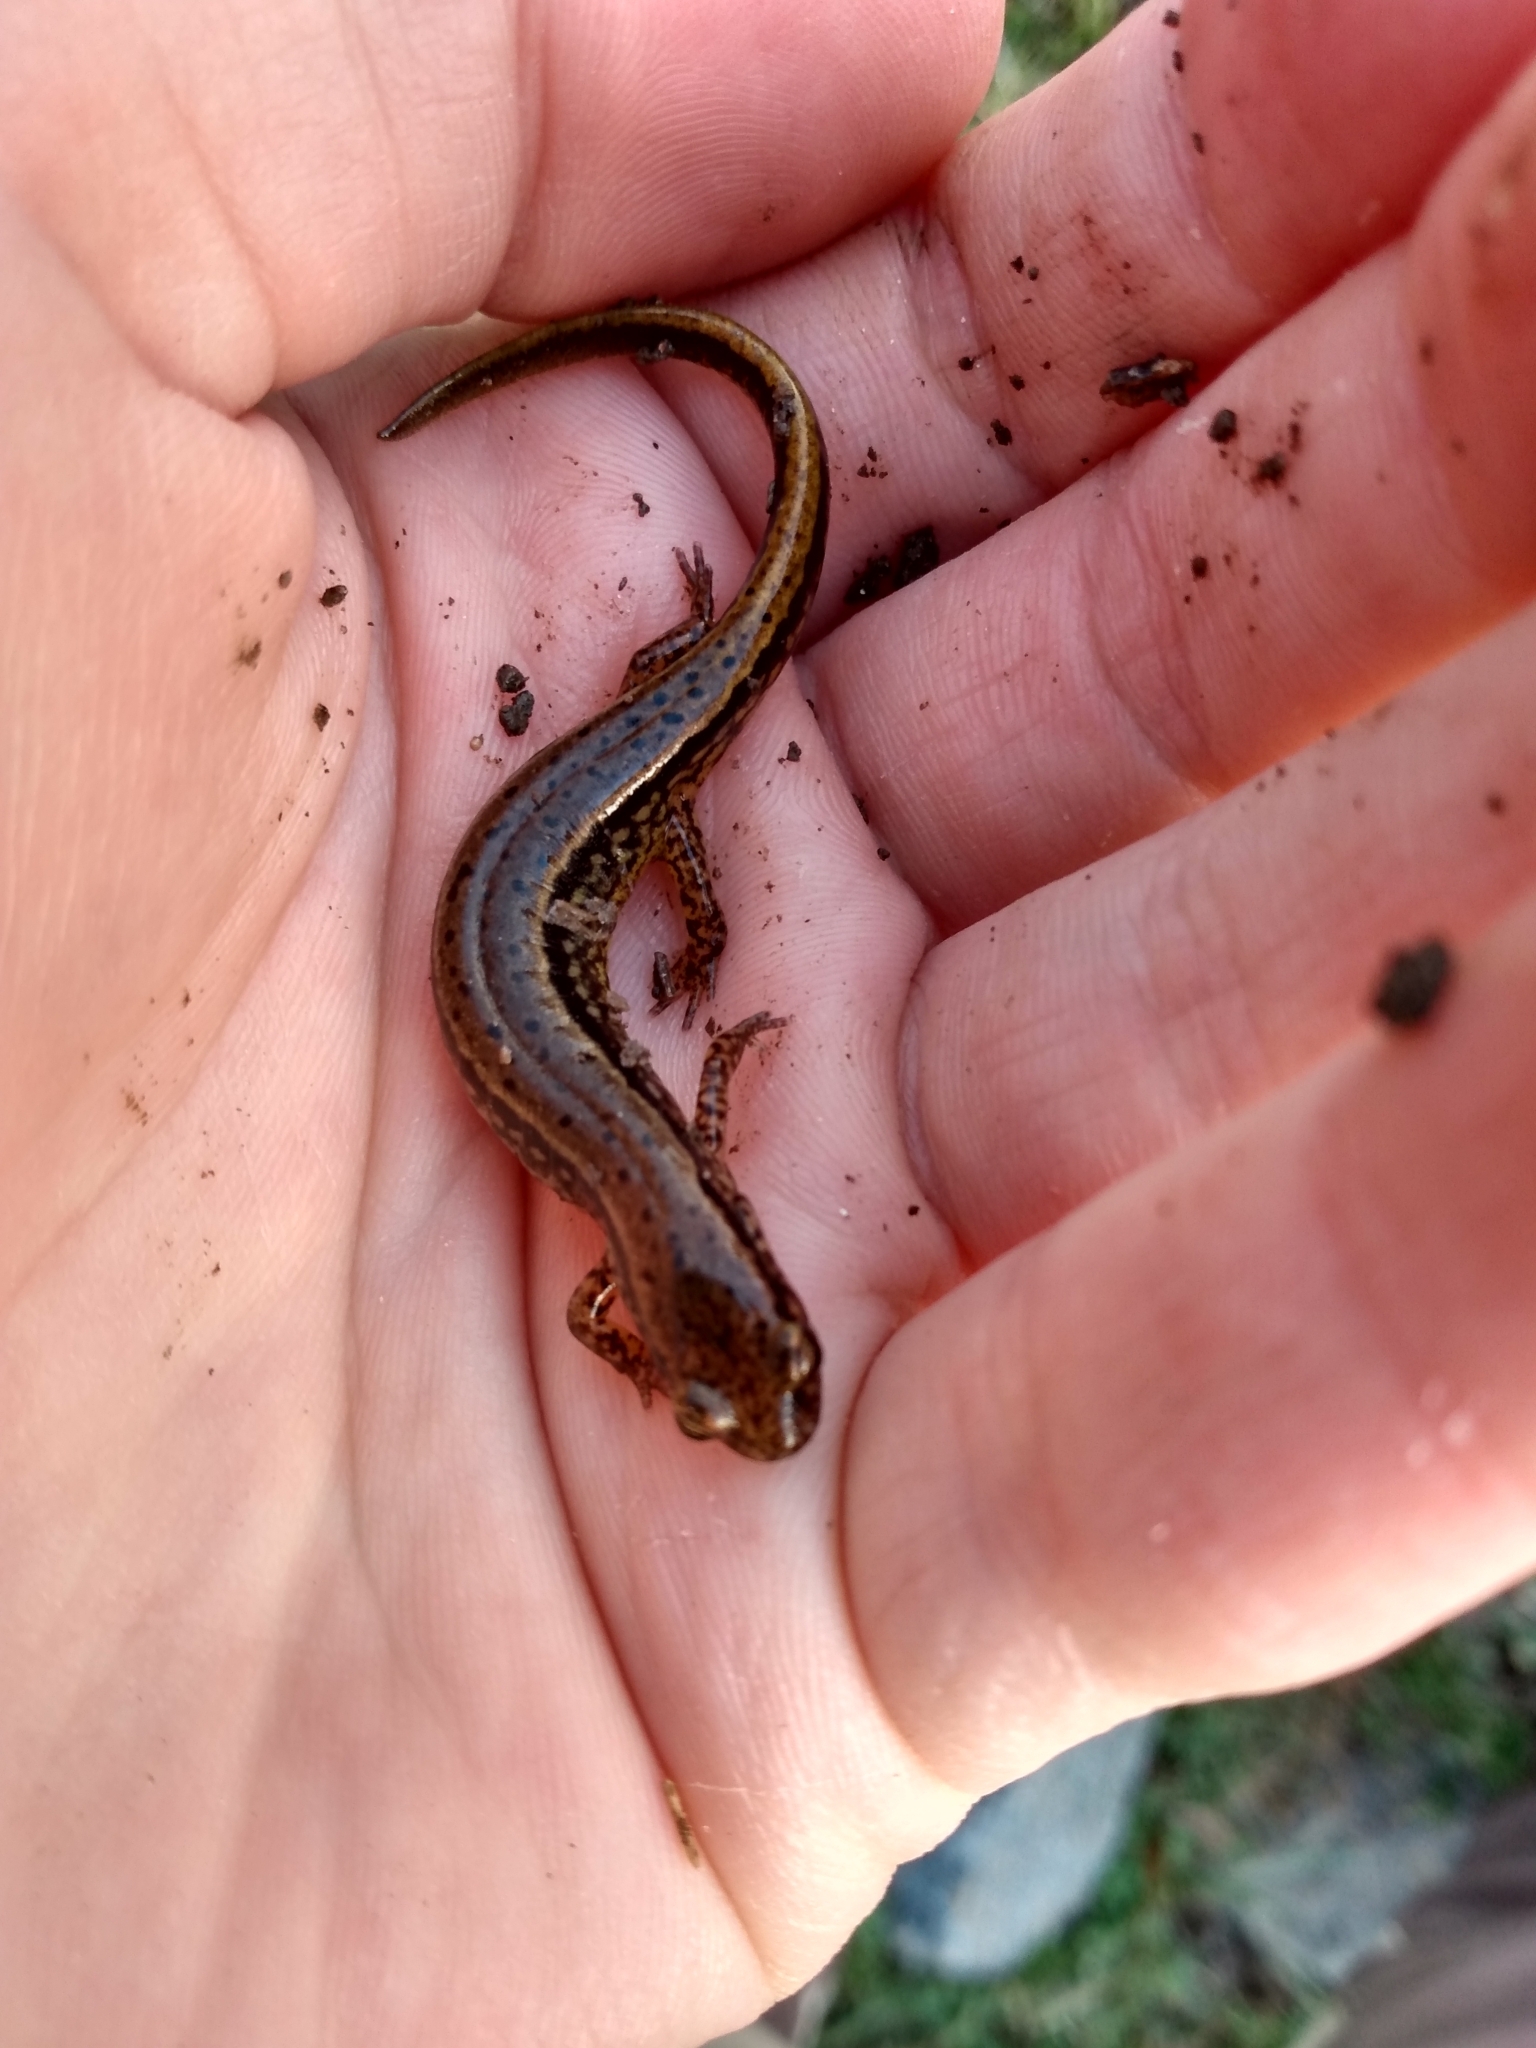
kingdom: Animalia
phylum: Chordata
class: Amphibia
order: Caudata
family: Plethodontidae
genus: Eurycea
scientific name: Eurycea cirrigera
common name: Southern two-lined salamander
